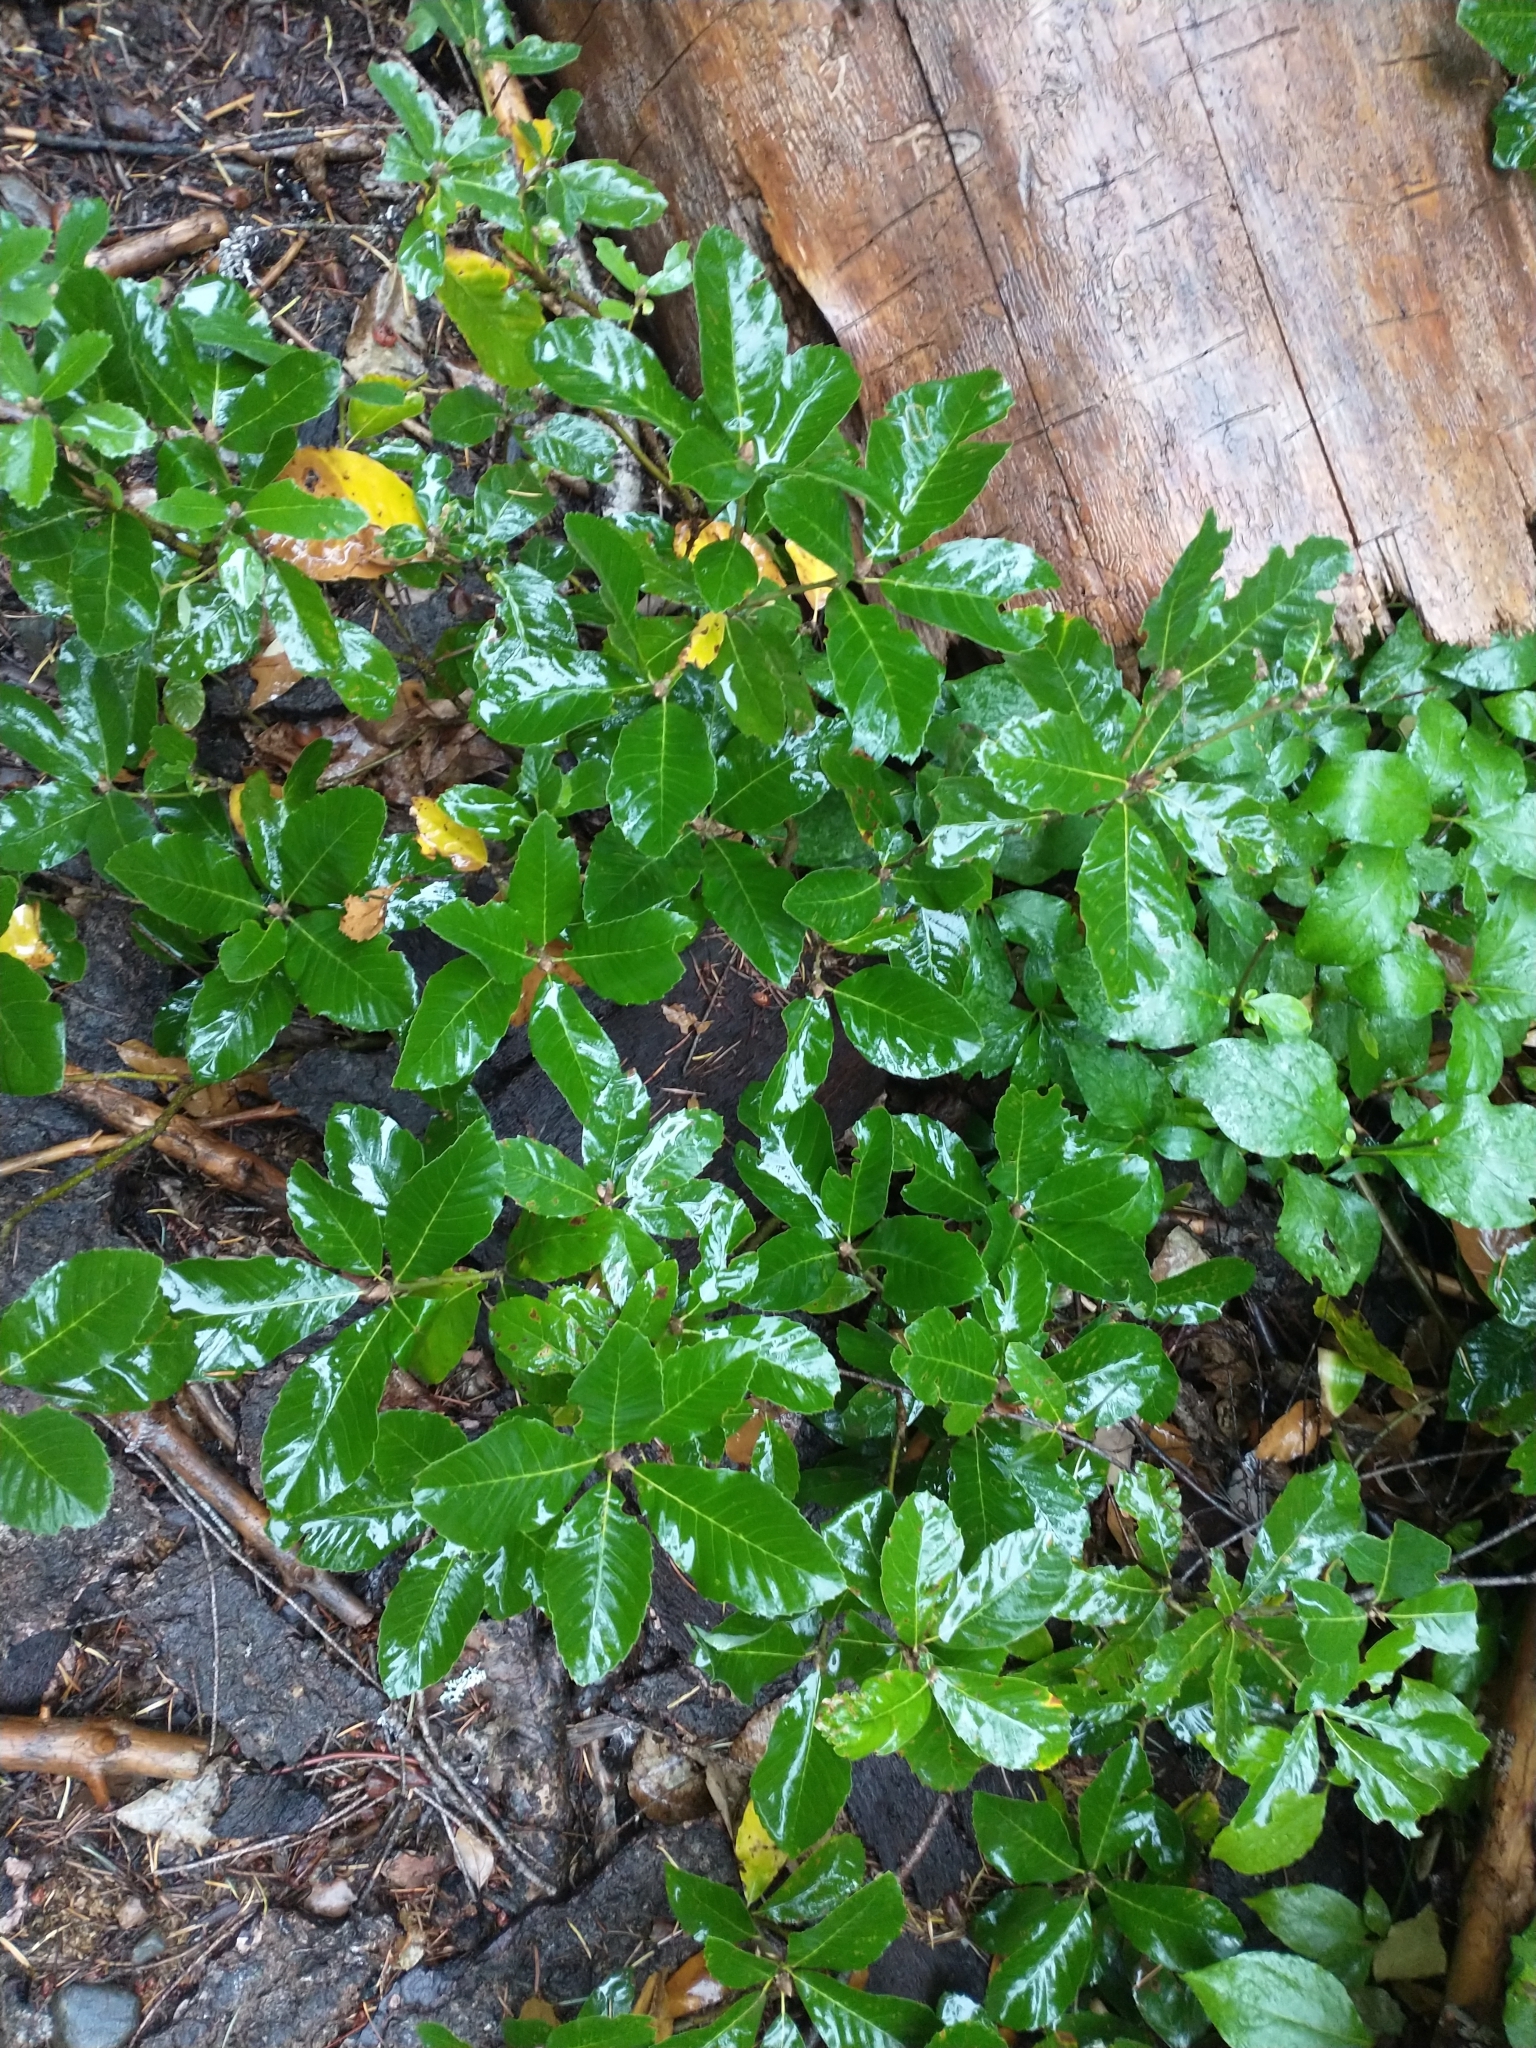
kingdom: Plantae
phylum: Tracheophyta
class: Magnoliopsida
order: Fagales
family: Fagaceae
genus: Quercus
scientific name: Quercus sadleriana
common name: Deer oak
